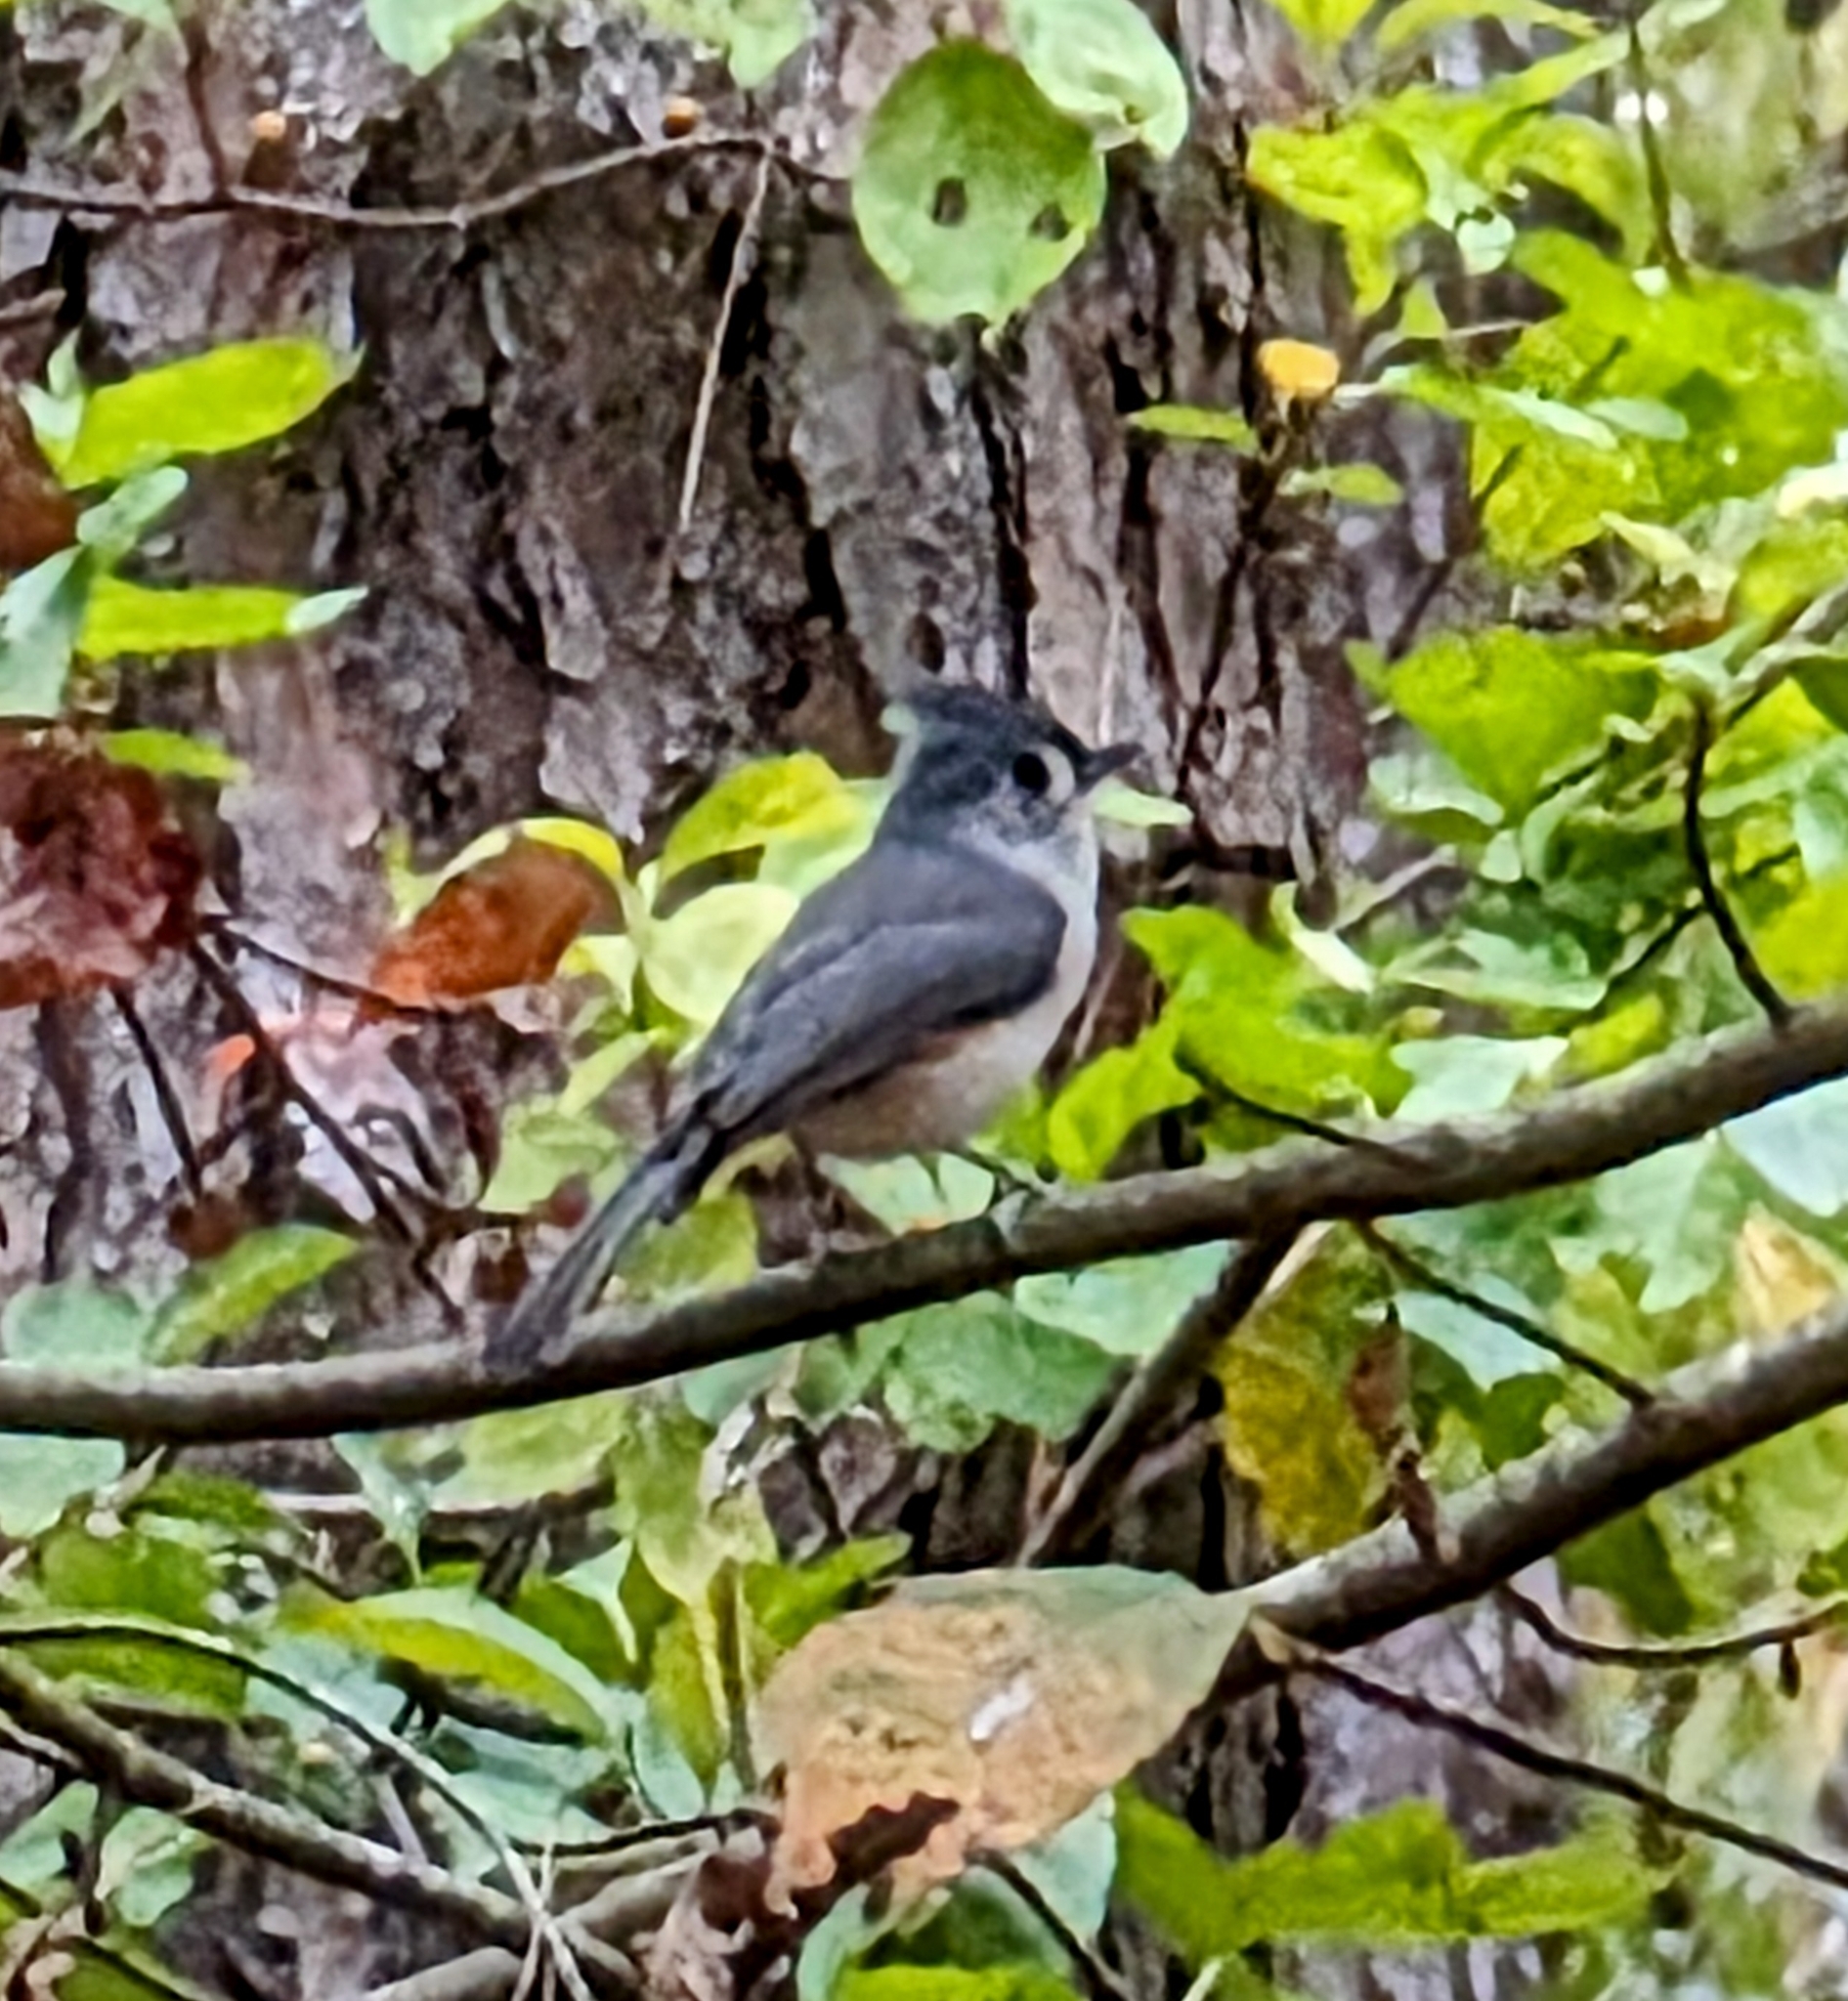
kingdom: Animalia
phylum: Chordata
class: Aves
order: Passeriformes
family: Paridae
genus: Baeolophus
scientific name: Baeolophus bicolor
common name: Tufted titmouse
